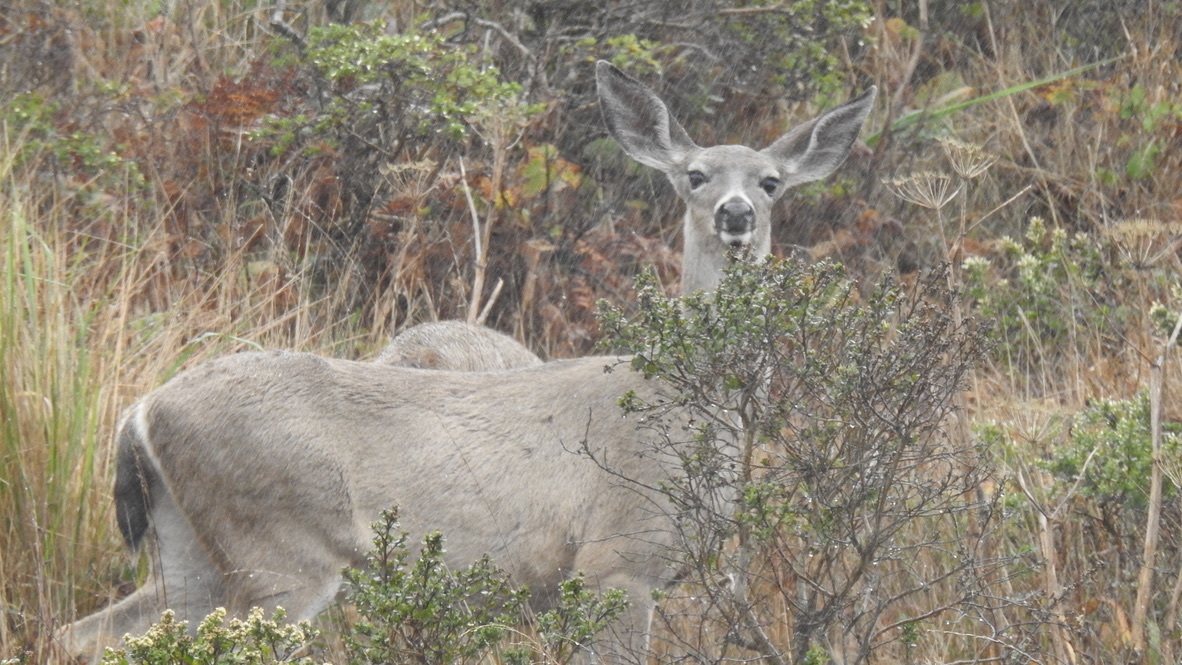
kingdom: Animalia
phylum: Chordata
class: Mammalia
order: Artiodactyla
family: Cervidae
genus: Odocoileus
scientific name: Odocoileus hemionus
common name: Mule deer
